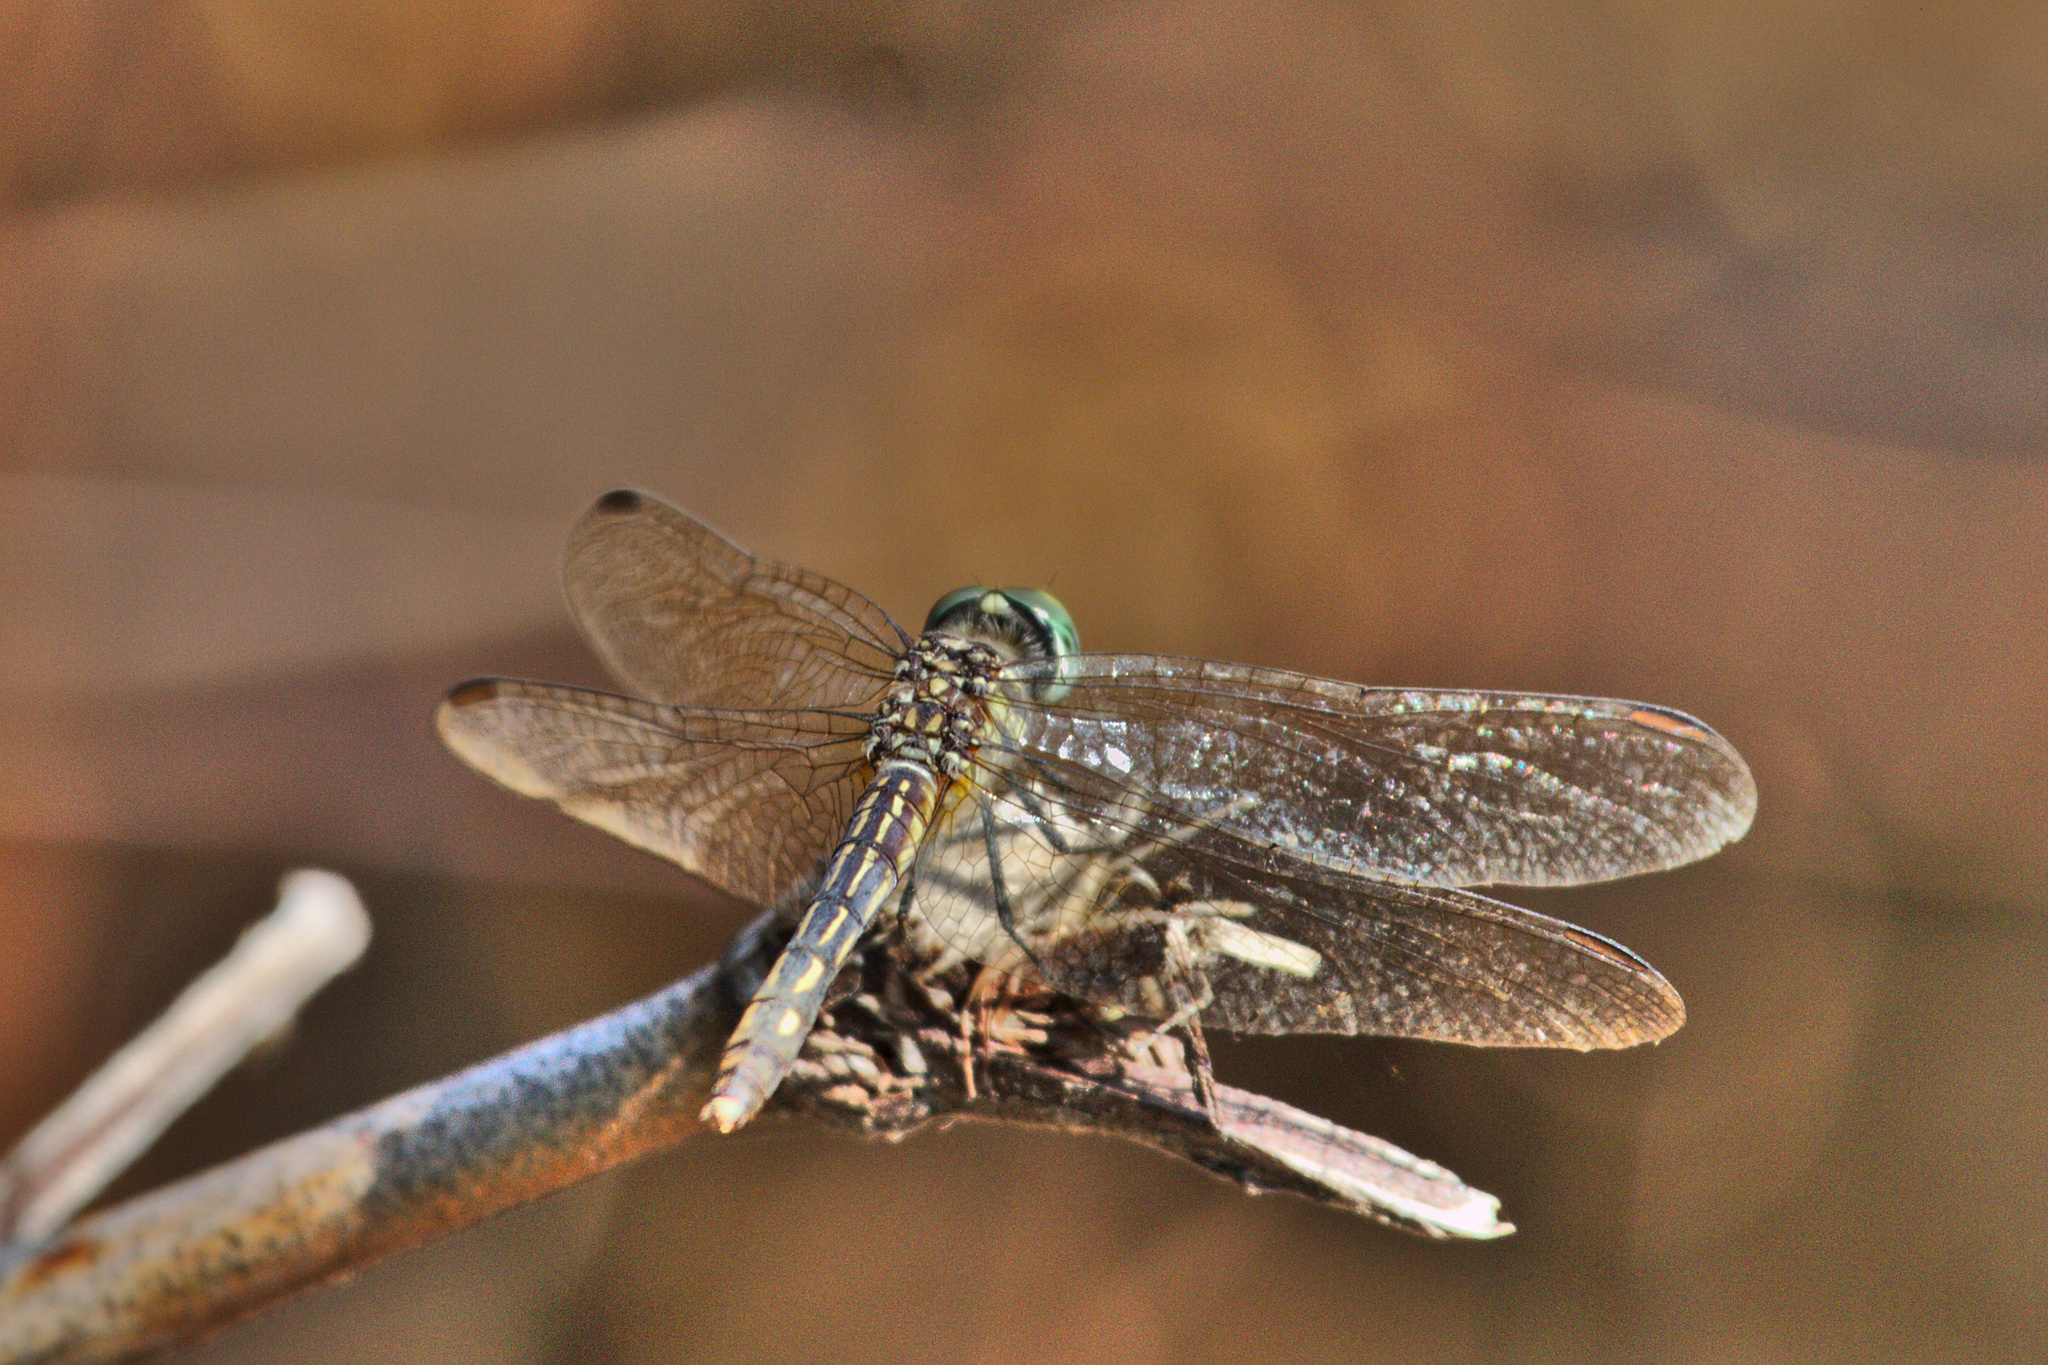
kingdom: Animalia
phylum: Arthropoda
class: Insecta
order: Odonata
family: Libellulidae
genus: Pachydiplax
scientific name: Pachydiplax longipennis
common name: Blue dasher
